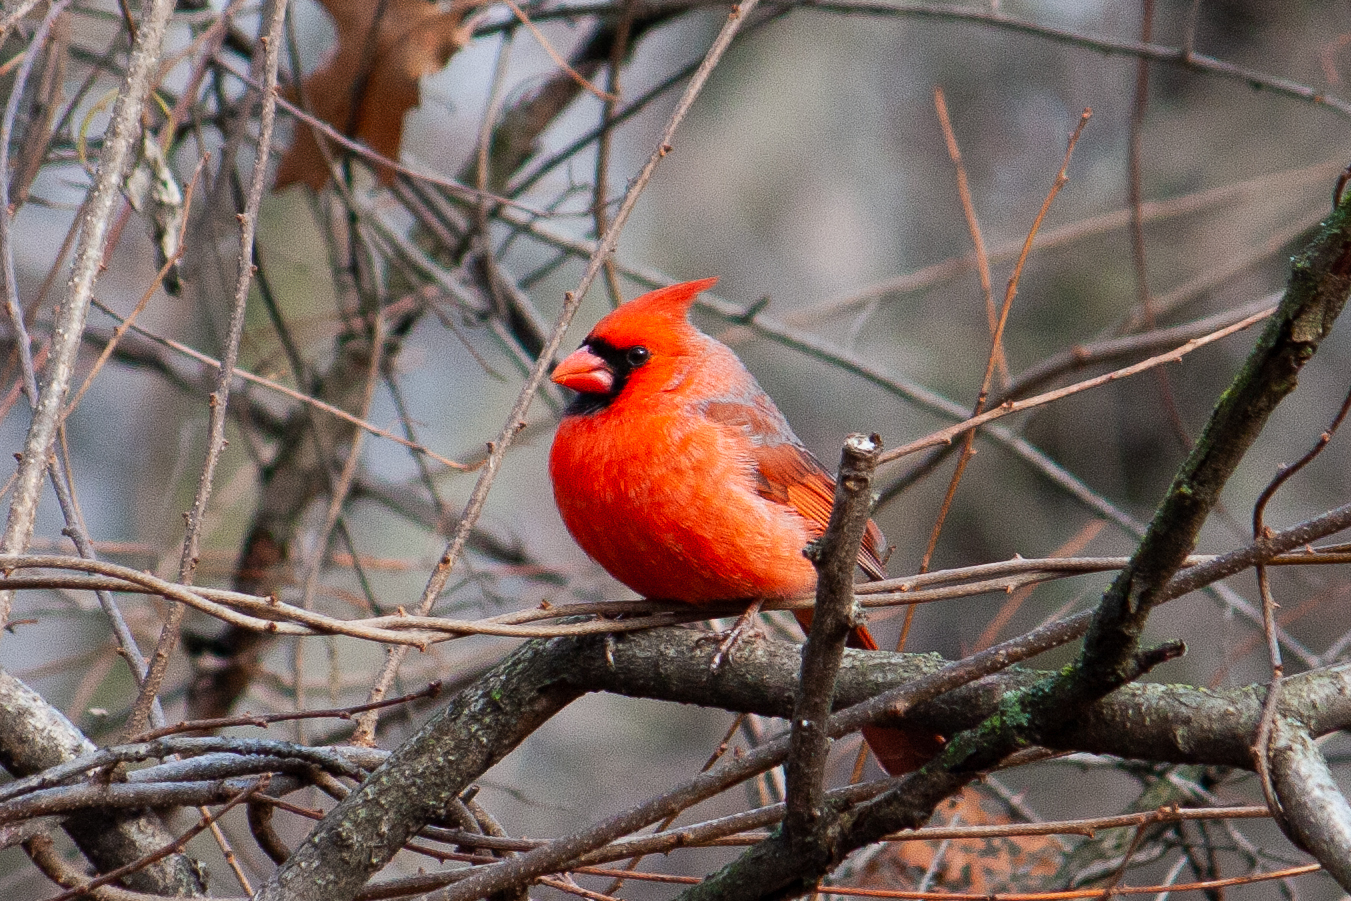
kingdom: Animalia
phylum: Chordata
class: Aves
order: Passeriformes
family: Cardinalidae
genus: Cardinalis
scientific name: Cardinalis cardinalis
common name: Northern cardinal
